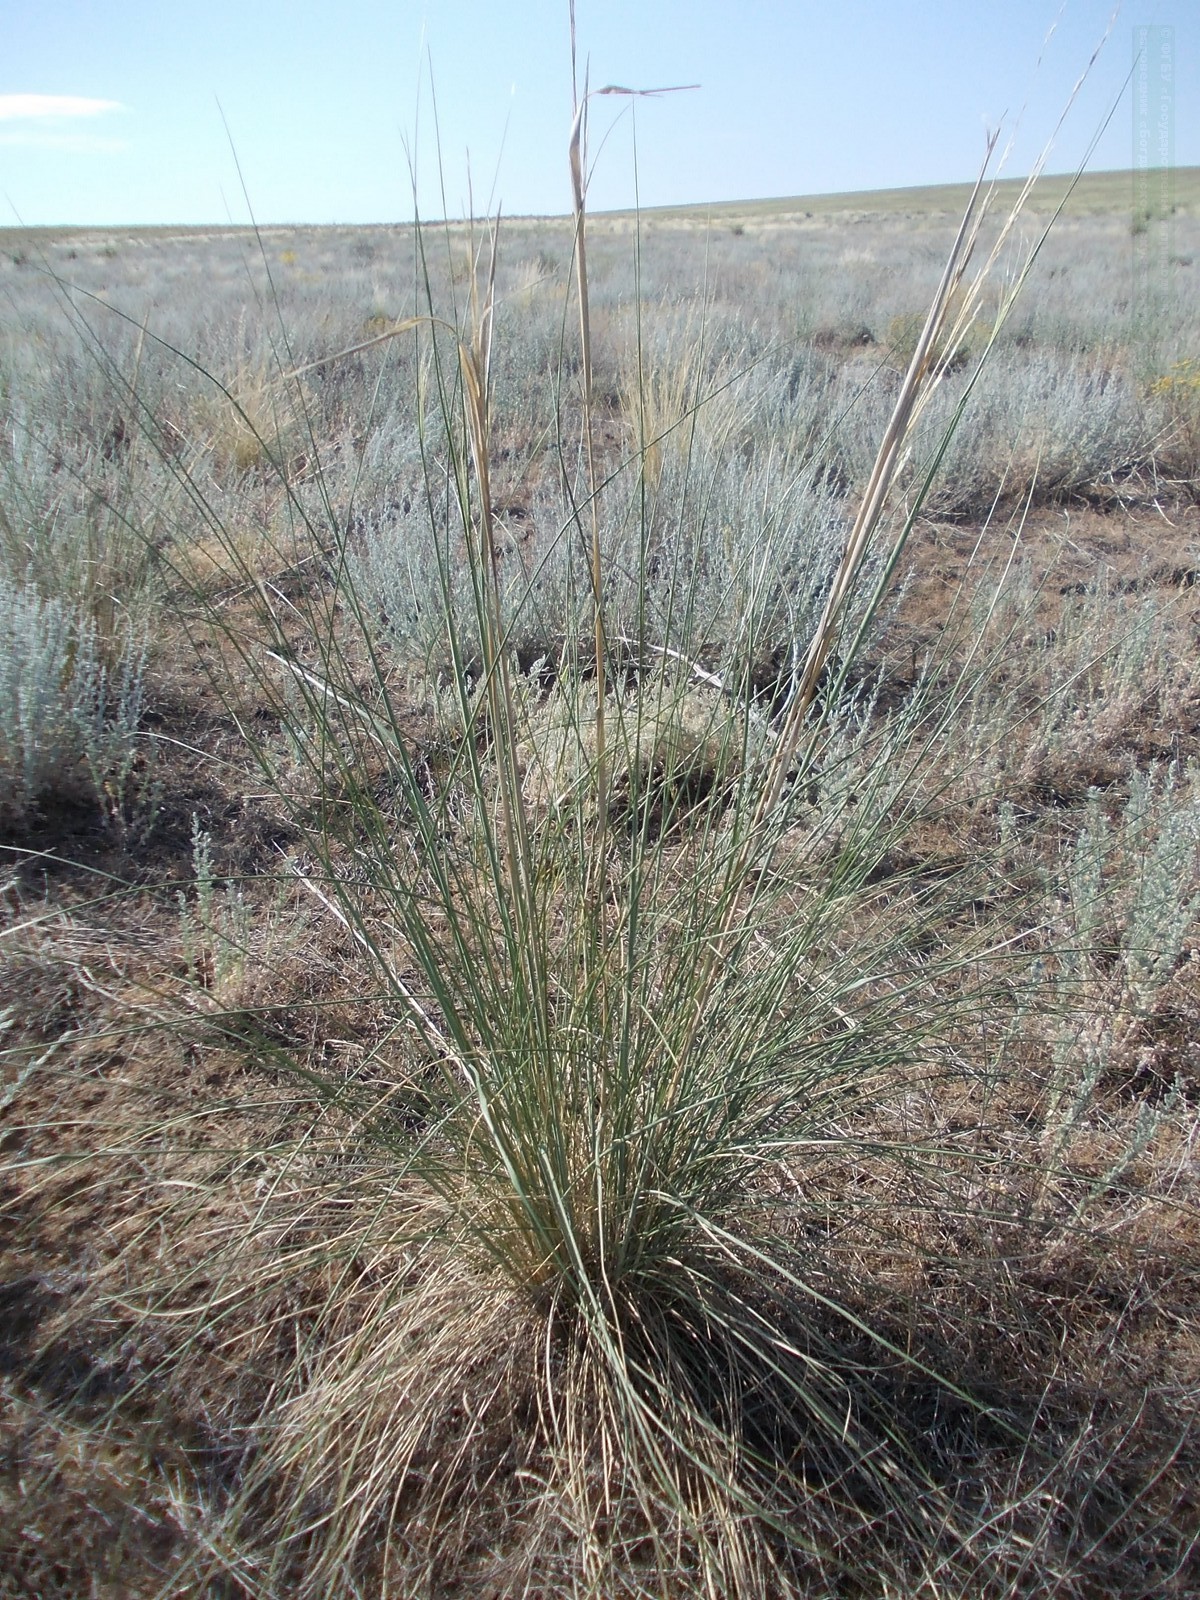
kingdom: Plantae
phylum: Tracheophyta
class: Liliopsida
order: Poales
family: Poaceae
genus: Stipa
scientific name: Stipa capillata
